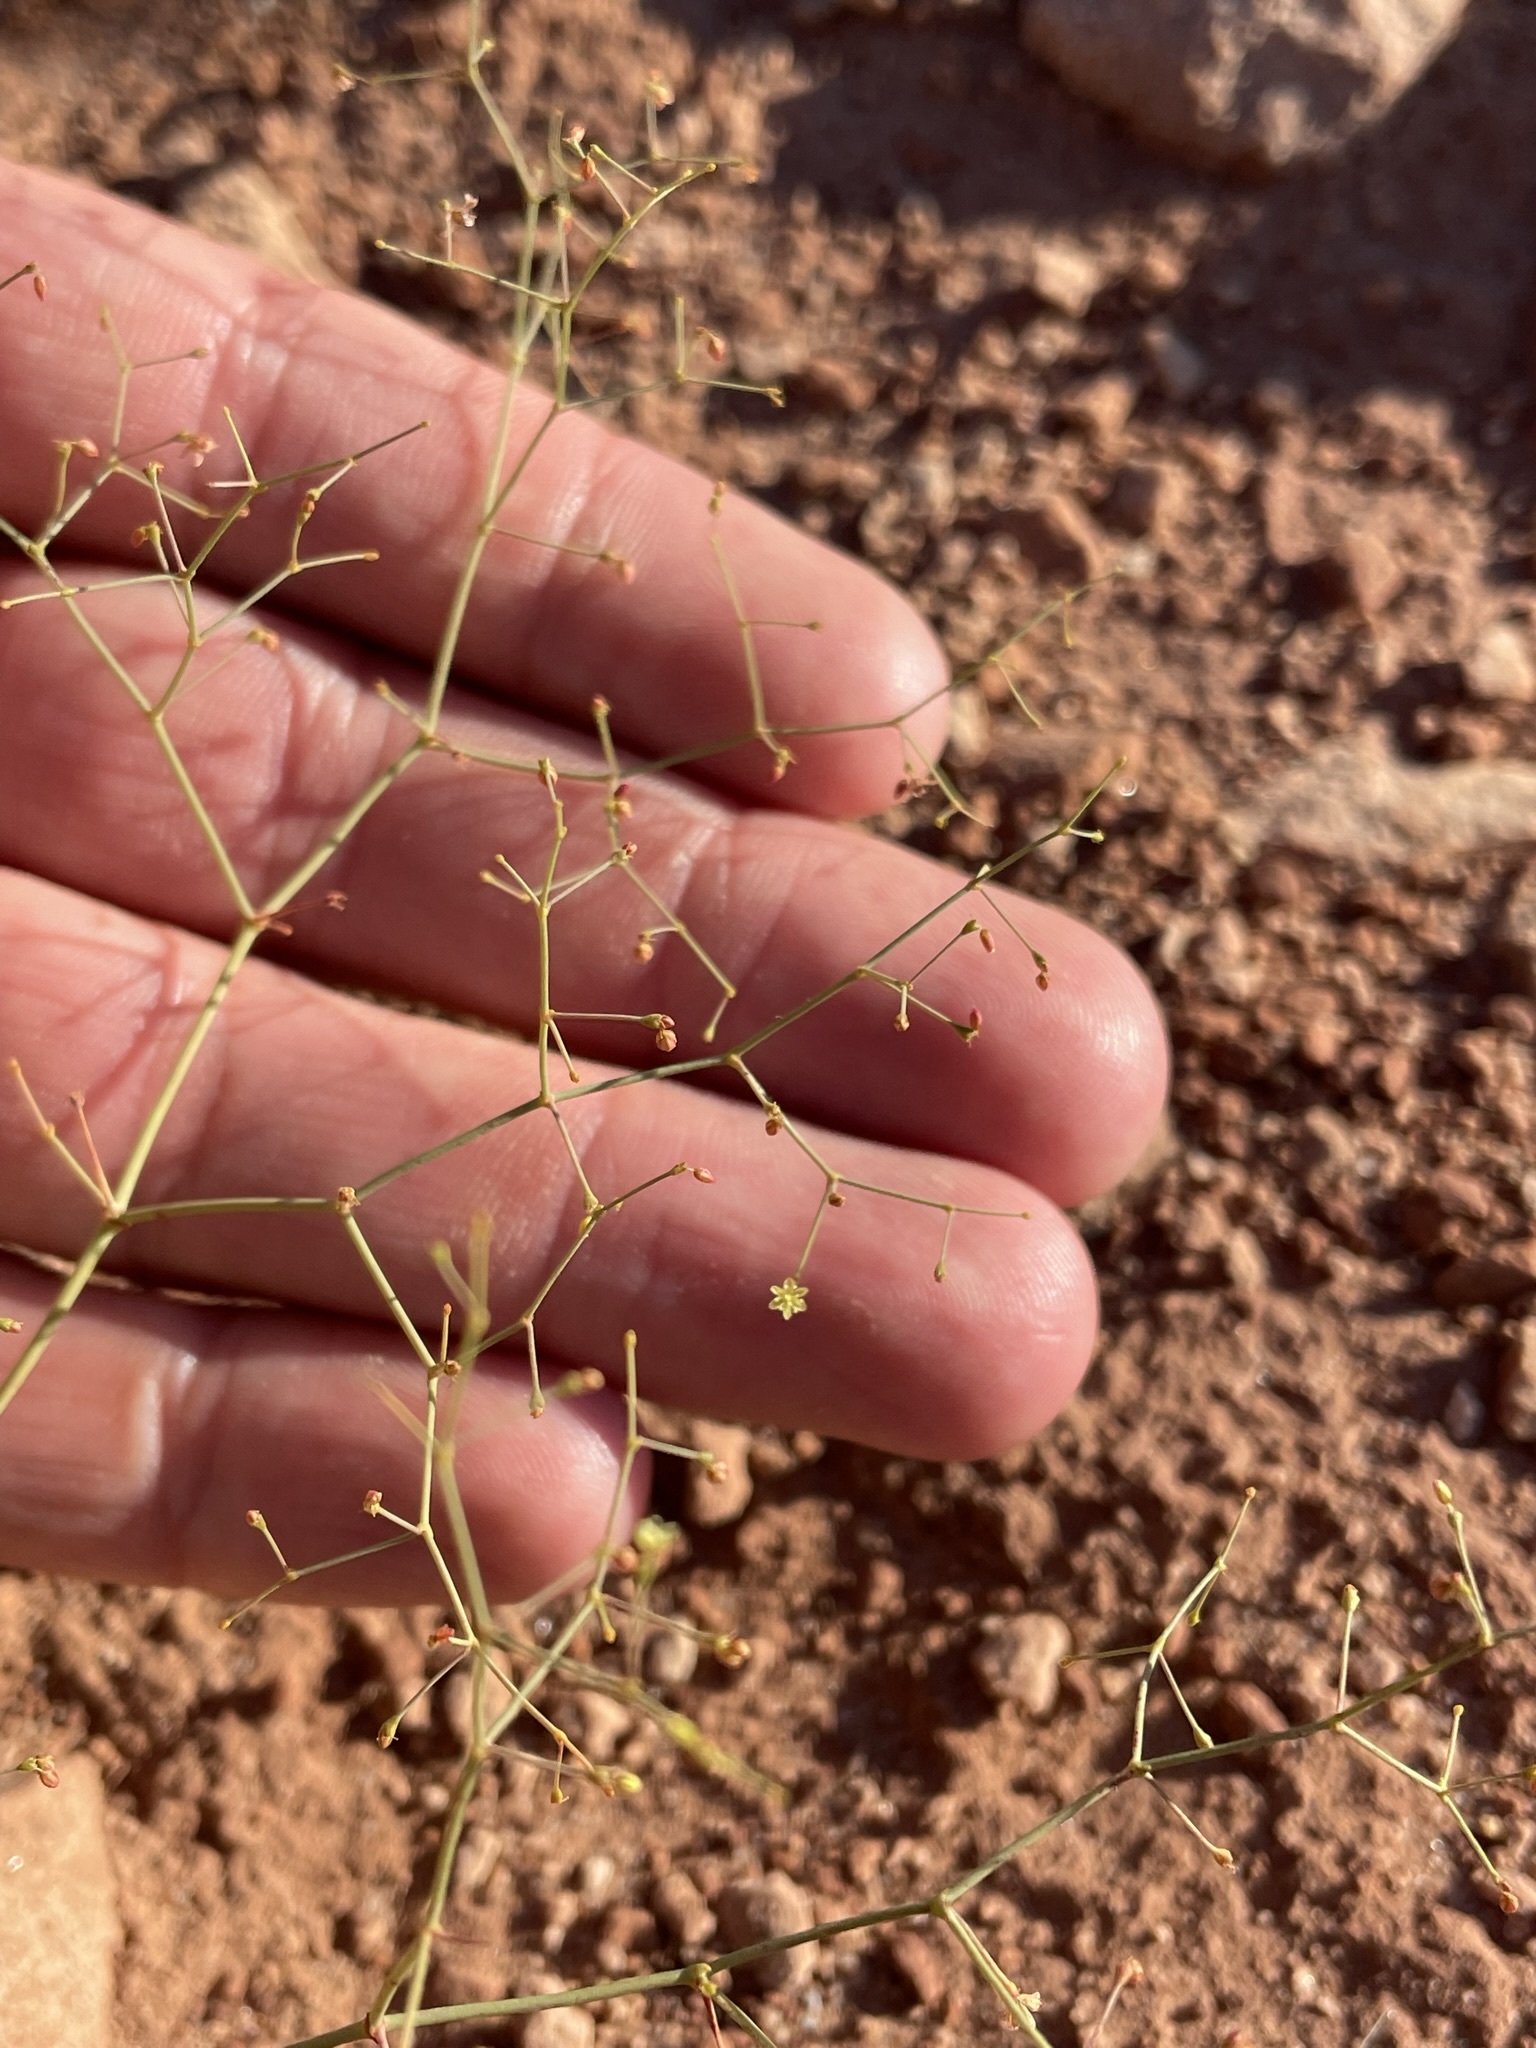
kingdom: Plantae
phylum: Tracheophyta
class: Magnoliopsida
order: Caryophyllales
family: Polygonaceae
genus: Eriogonum
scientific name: Eriogonum wetherillii
